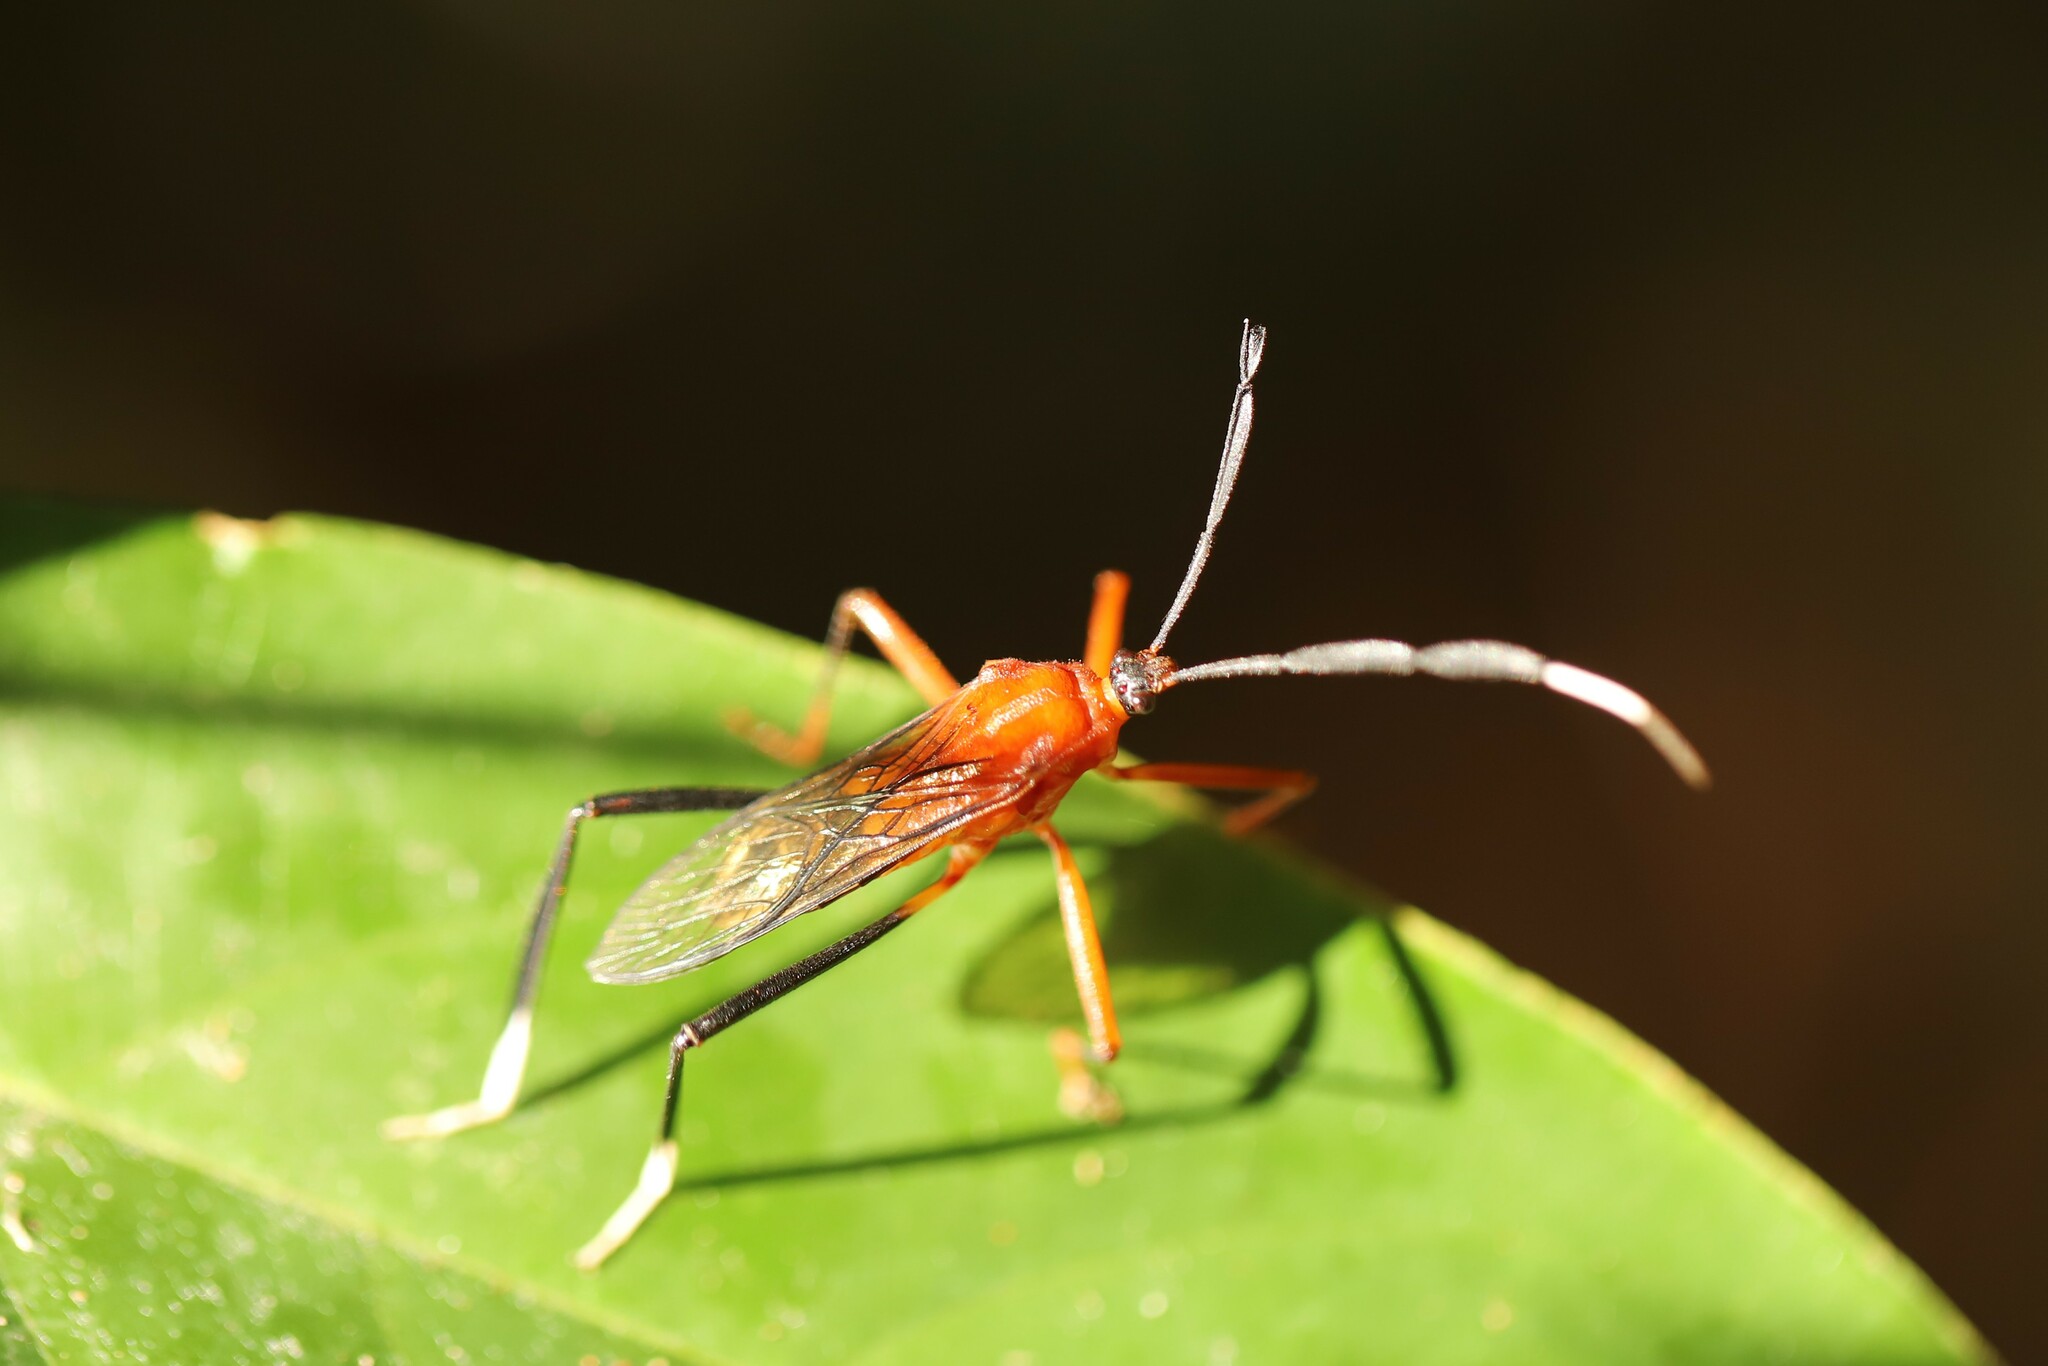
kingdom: Animalia
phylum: Arthropoda
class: Insecta
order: Hemiptera
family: Coreidae
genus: Holhymenia
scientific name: Holhymenia rubescens
